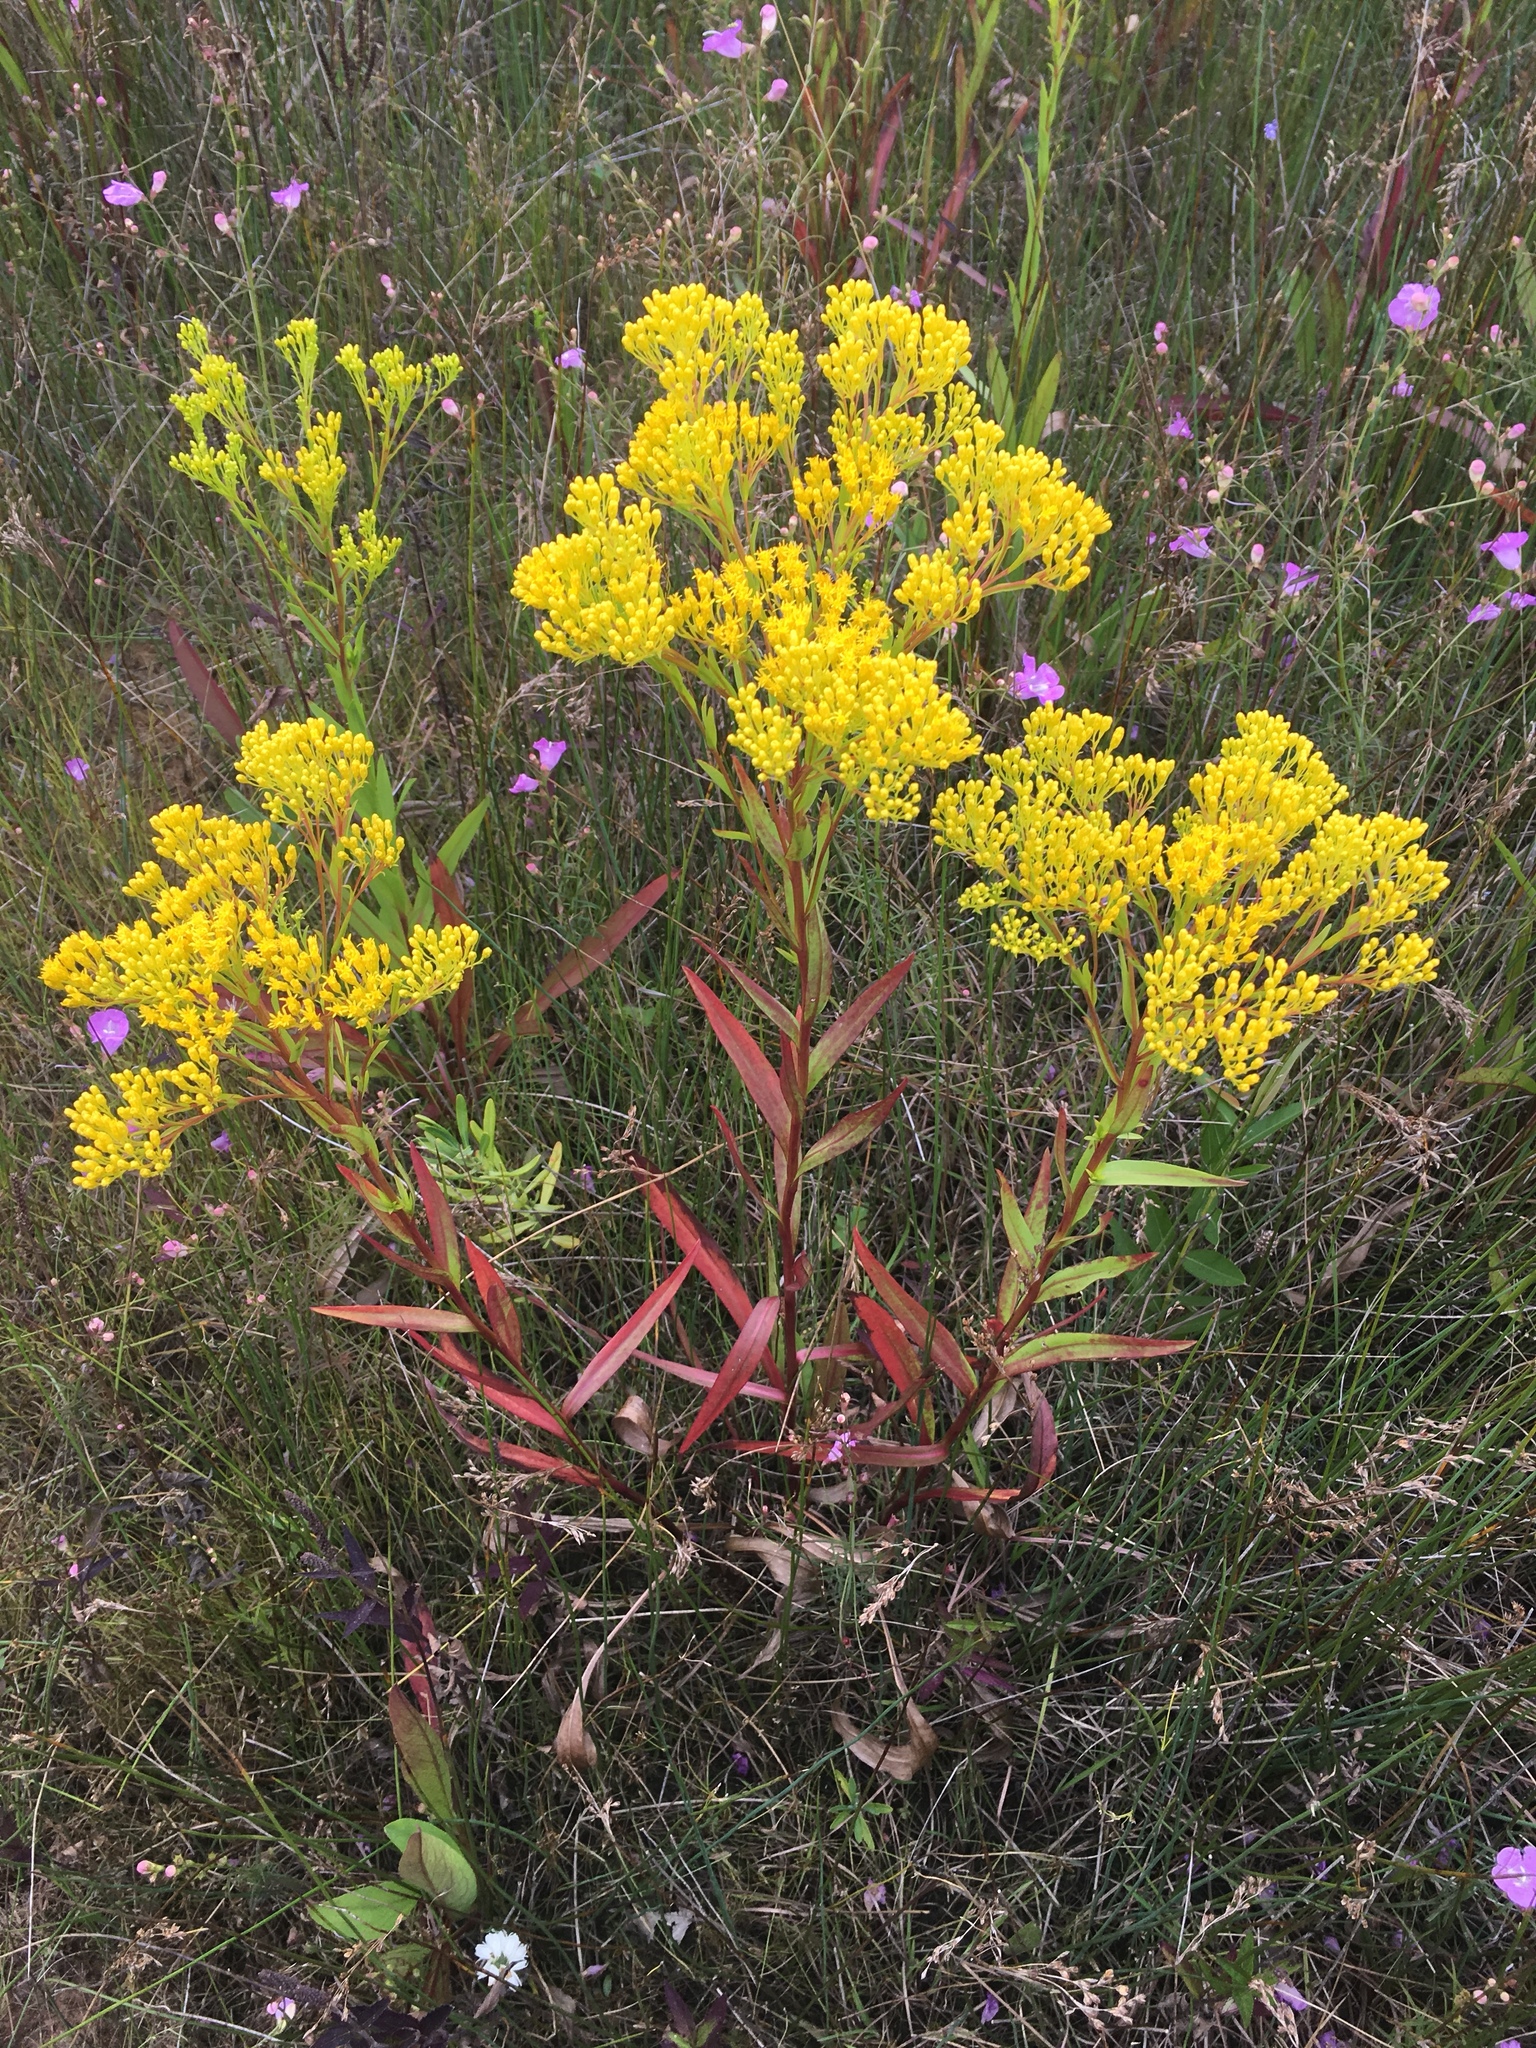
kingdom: Plantae
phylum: Tracheophyta
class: Magnoliopsida
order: Asterales
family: Asteraceae
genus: Solidago
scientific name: Solidago ohioensis
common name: Ohio goldenrod
